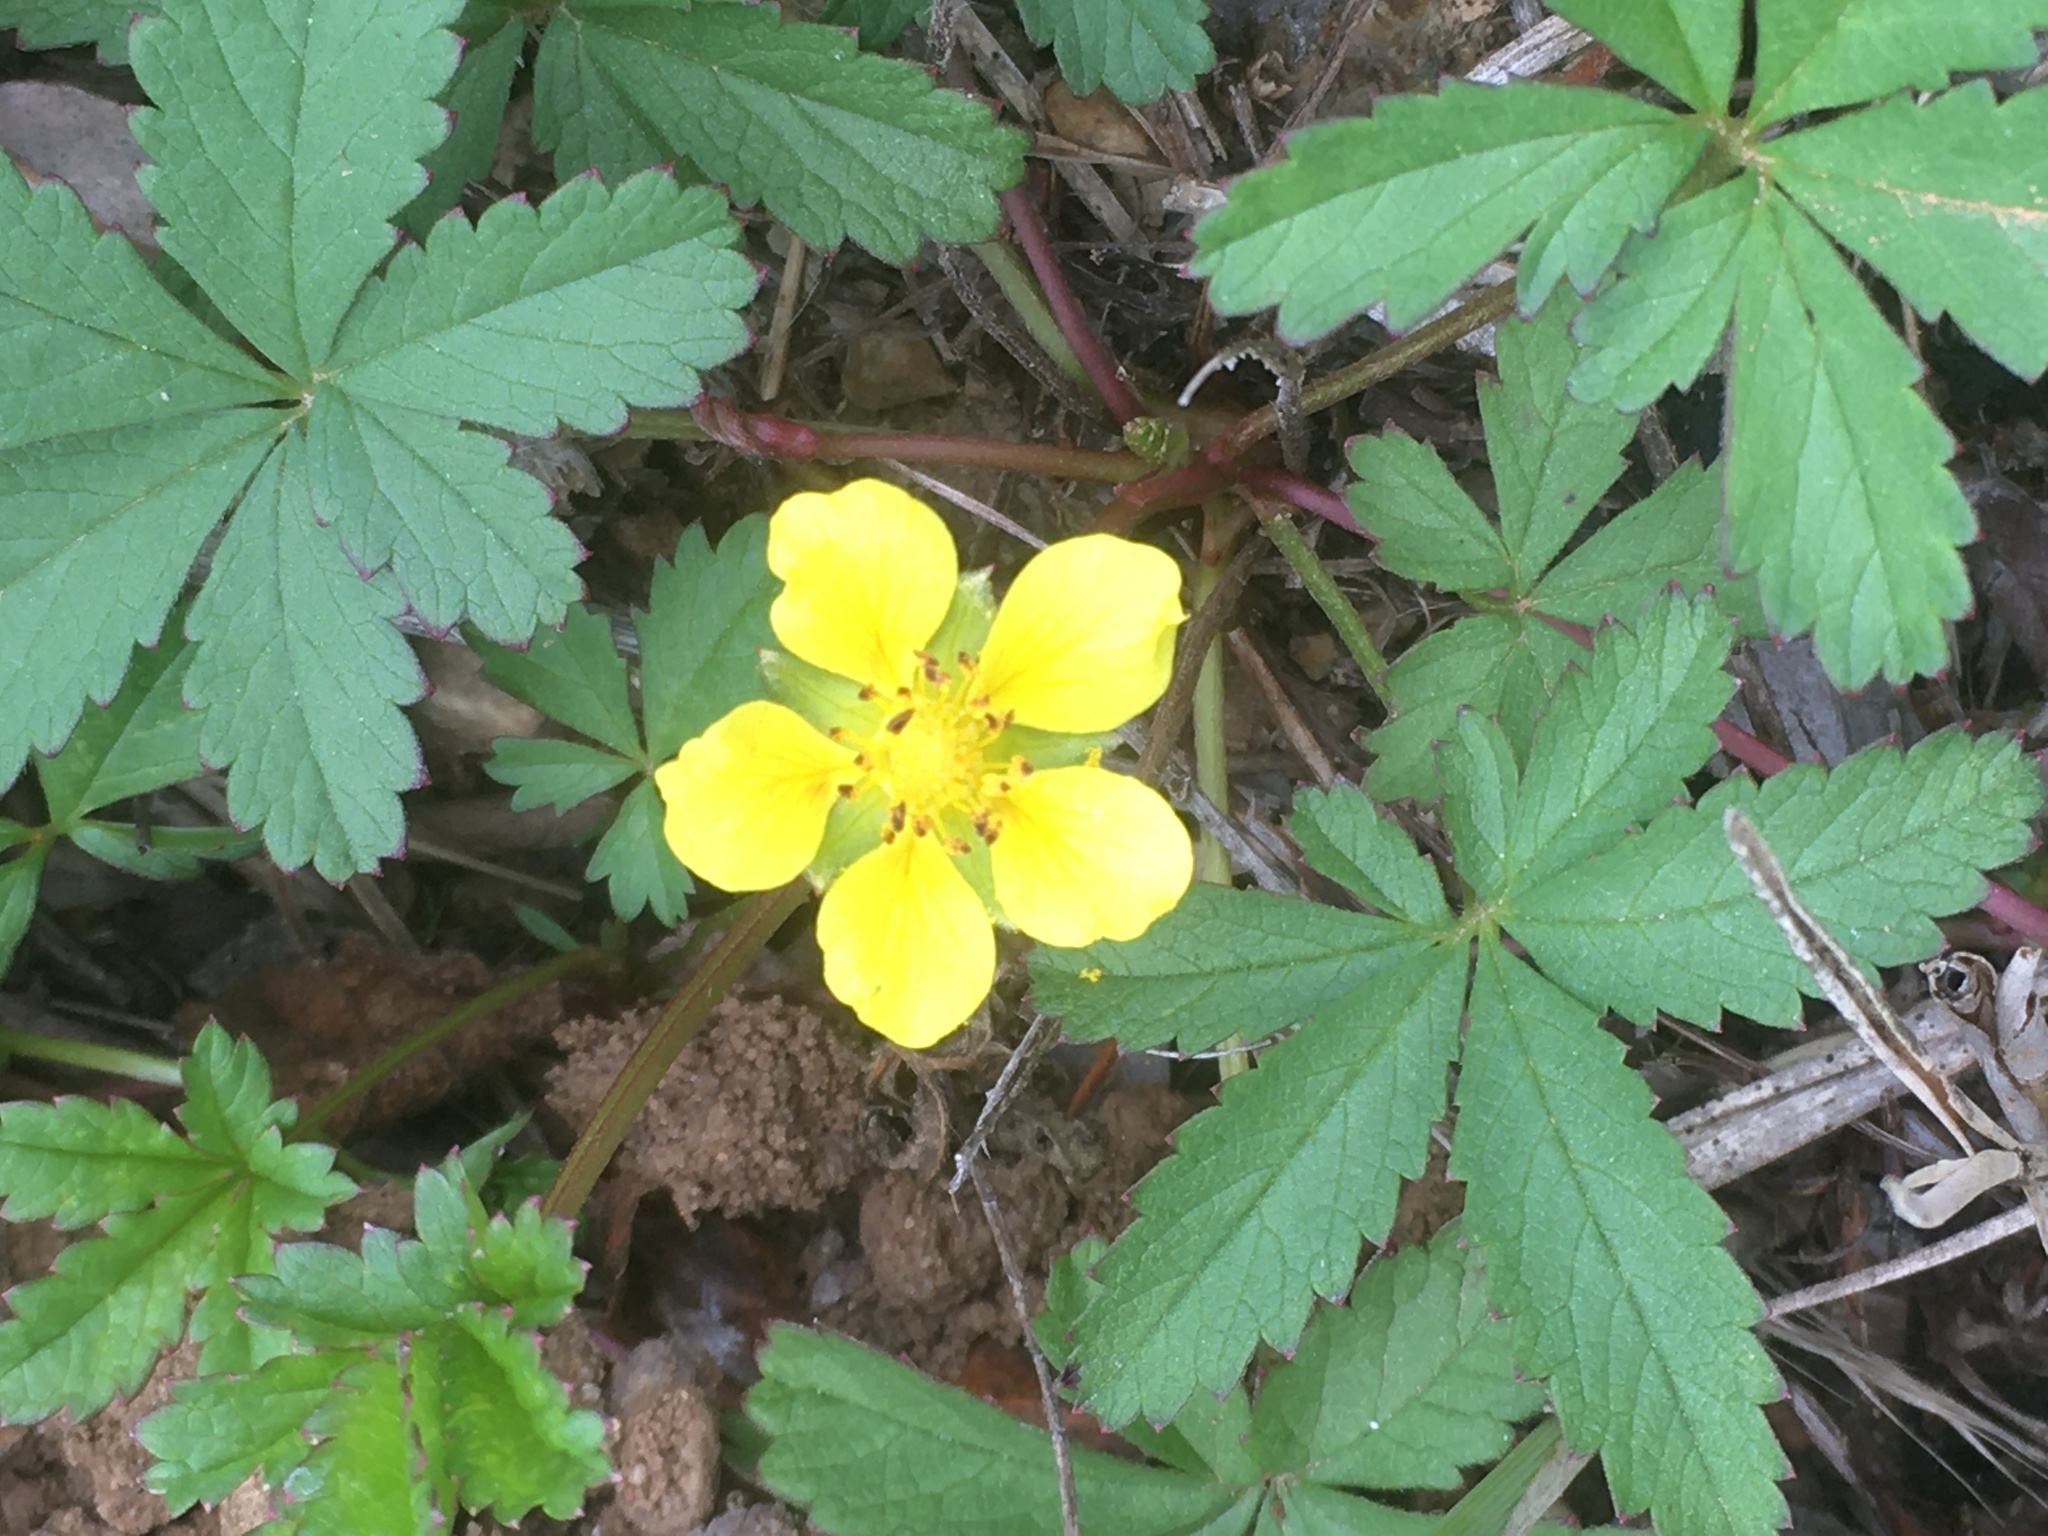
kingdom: Plantae
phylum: Tracheophyta
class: Magnoliopsida
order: Rosales
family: Rosaceae
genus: Potentilla
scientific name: Potentilla reptans
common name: Creeping cinquefoil
